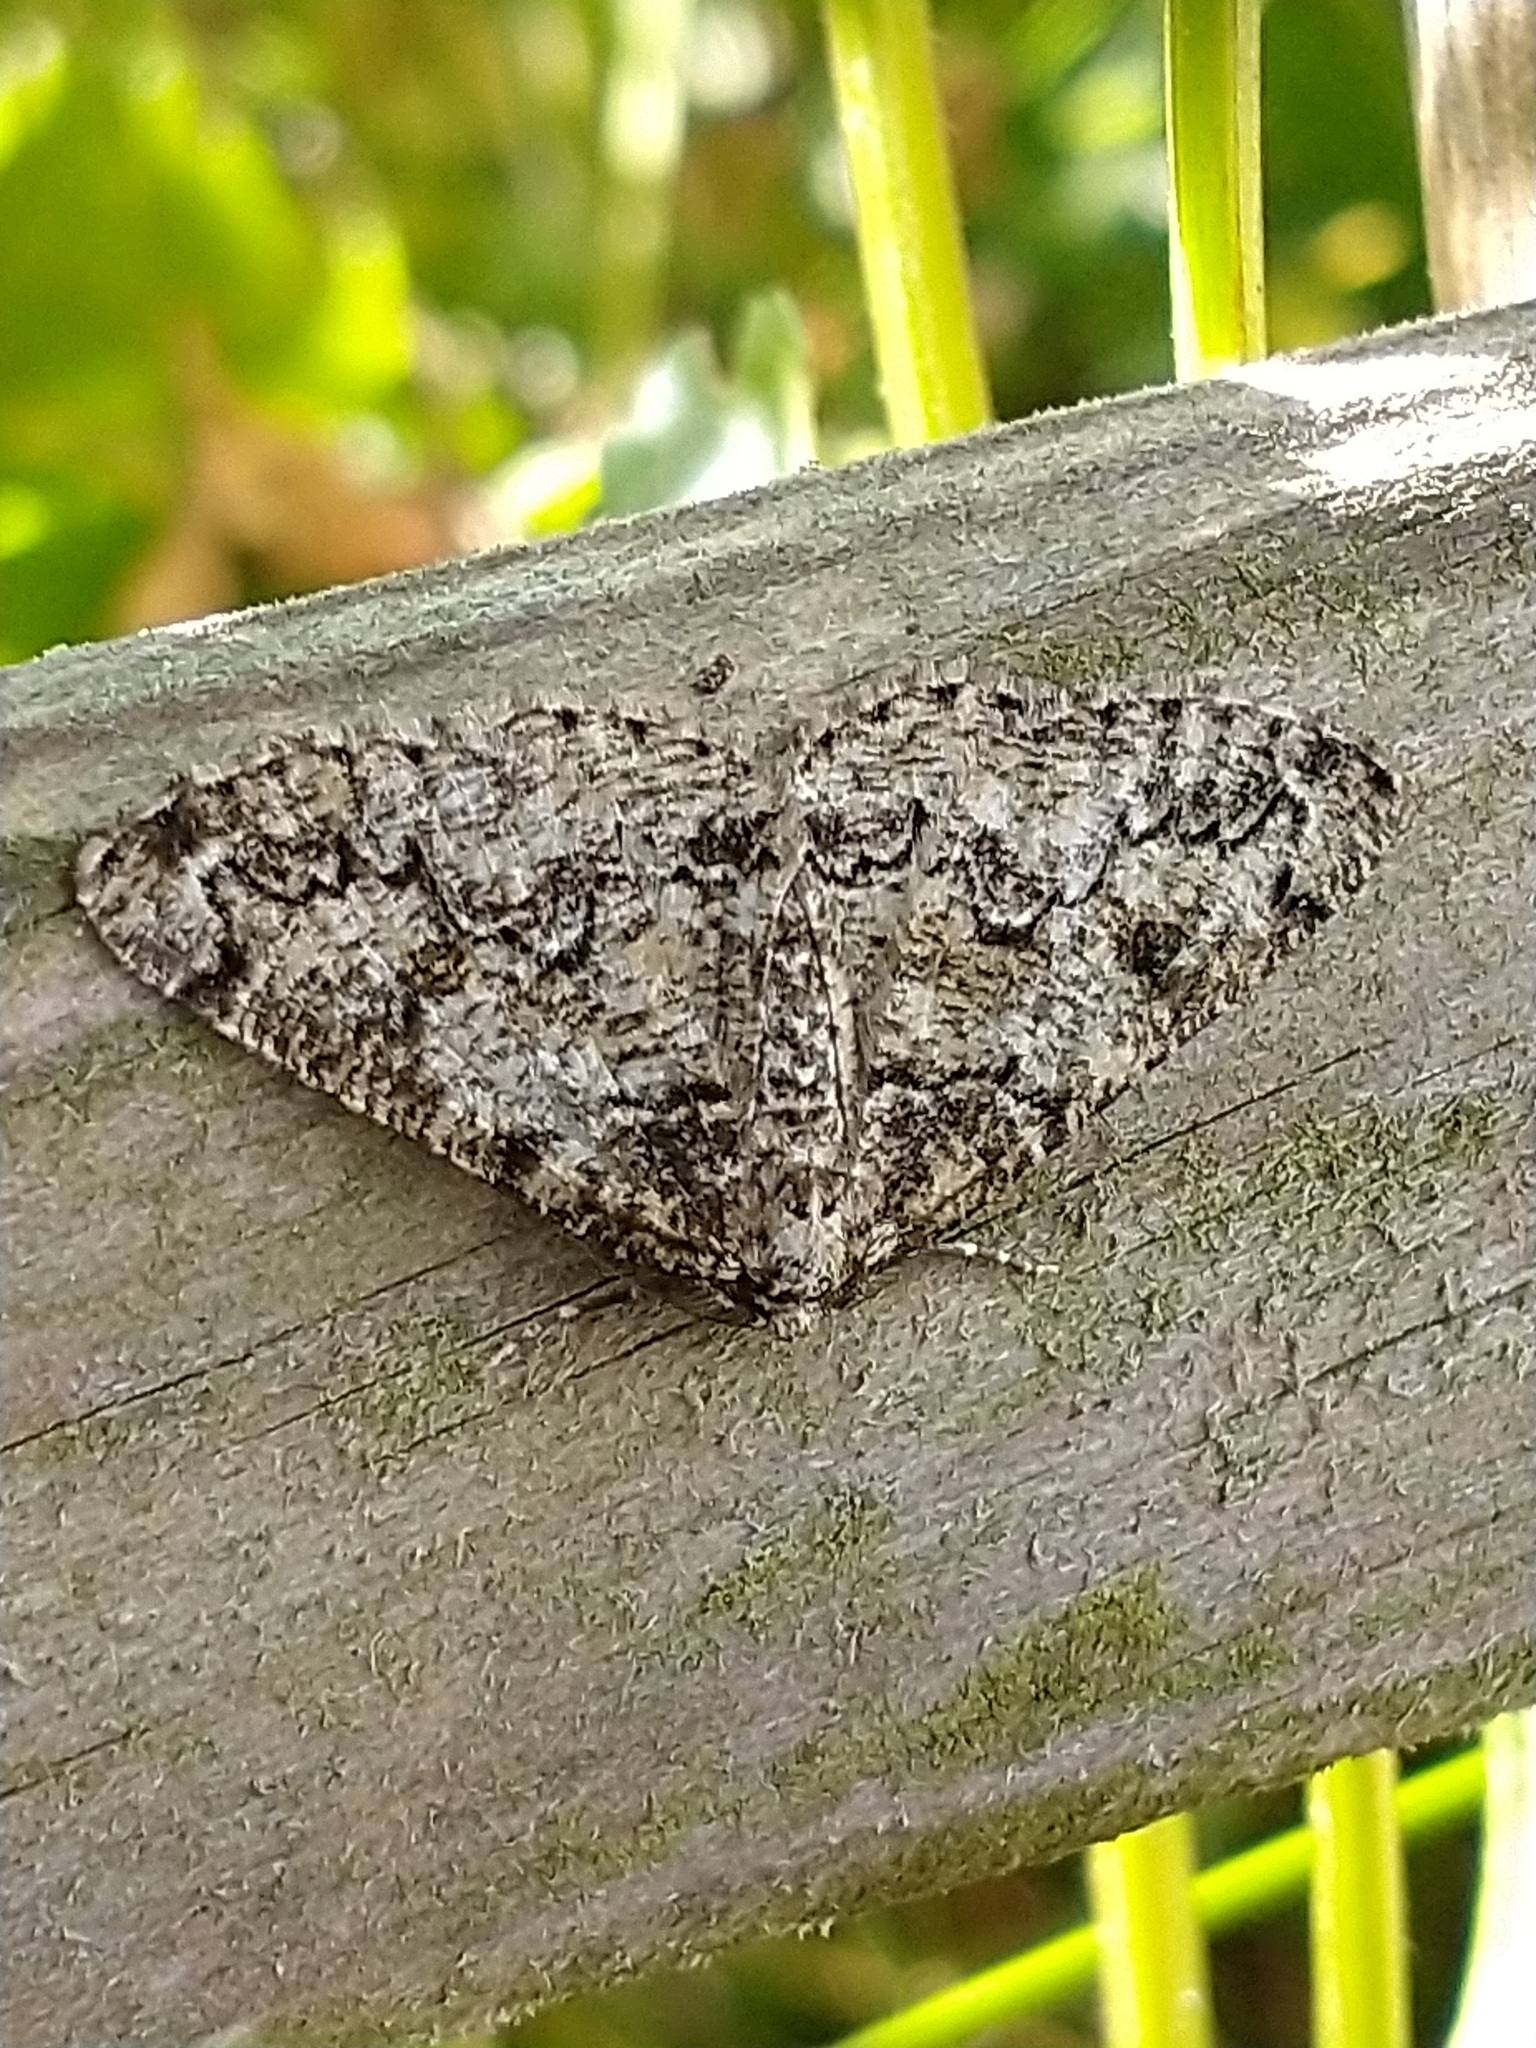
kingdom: Animalia
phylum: Arthropoda
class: Insecta
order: Lepidoptera
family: Geometridae
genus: Cleorodes
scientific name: Cleorodes lichenaria
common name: Brussels lace
